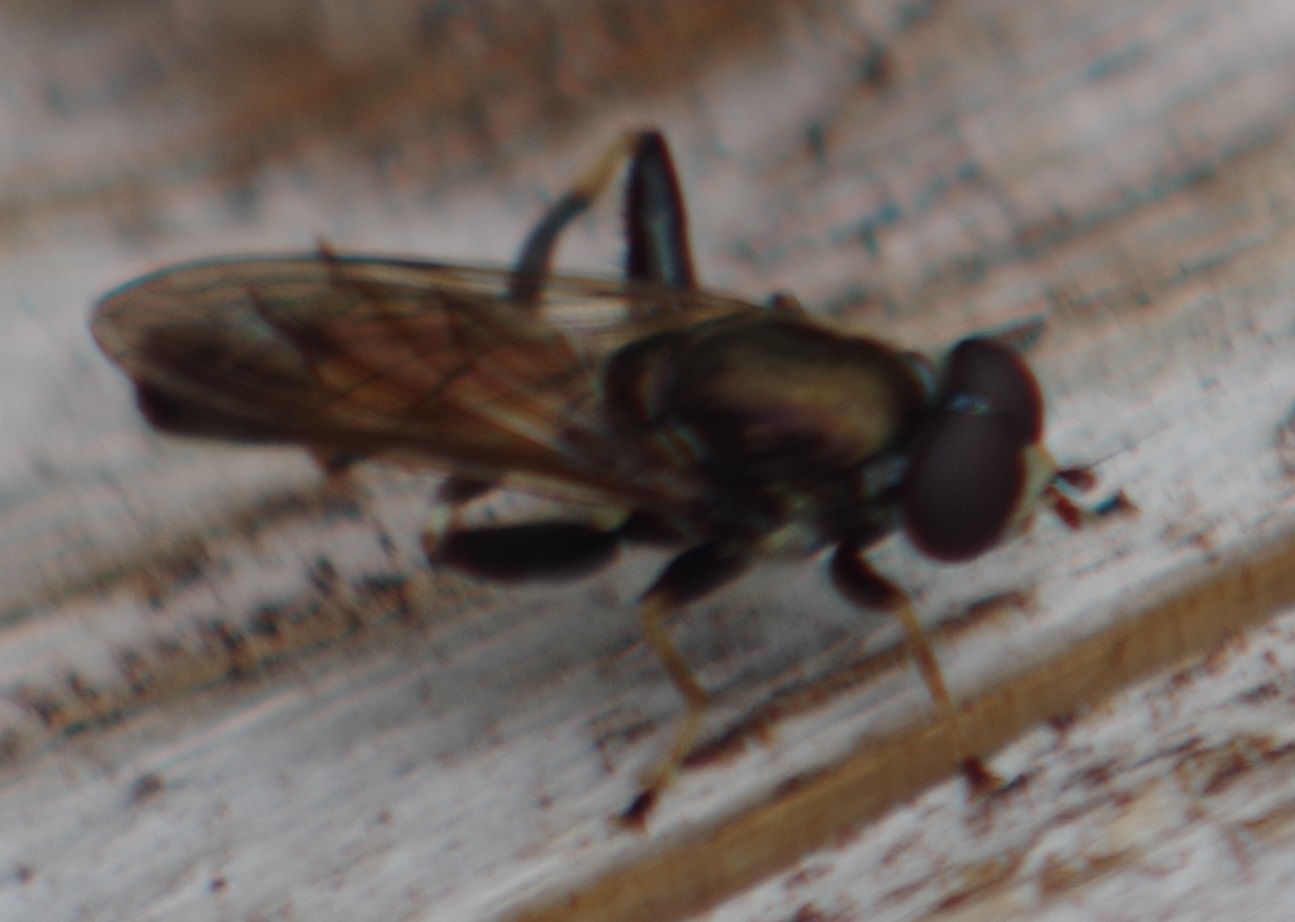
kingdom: Animalia
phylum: Arthropoda
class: Insecta
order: Diptera
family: Syrphidae
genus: Xylota
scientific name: Xylota segnis
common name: Brown-toed forest fly
